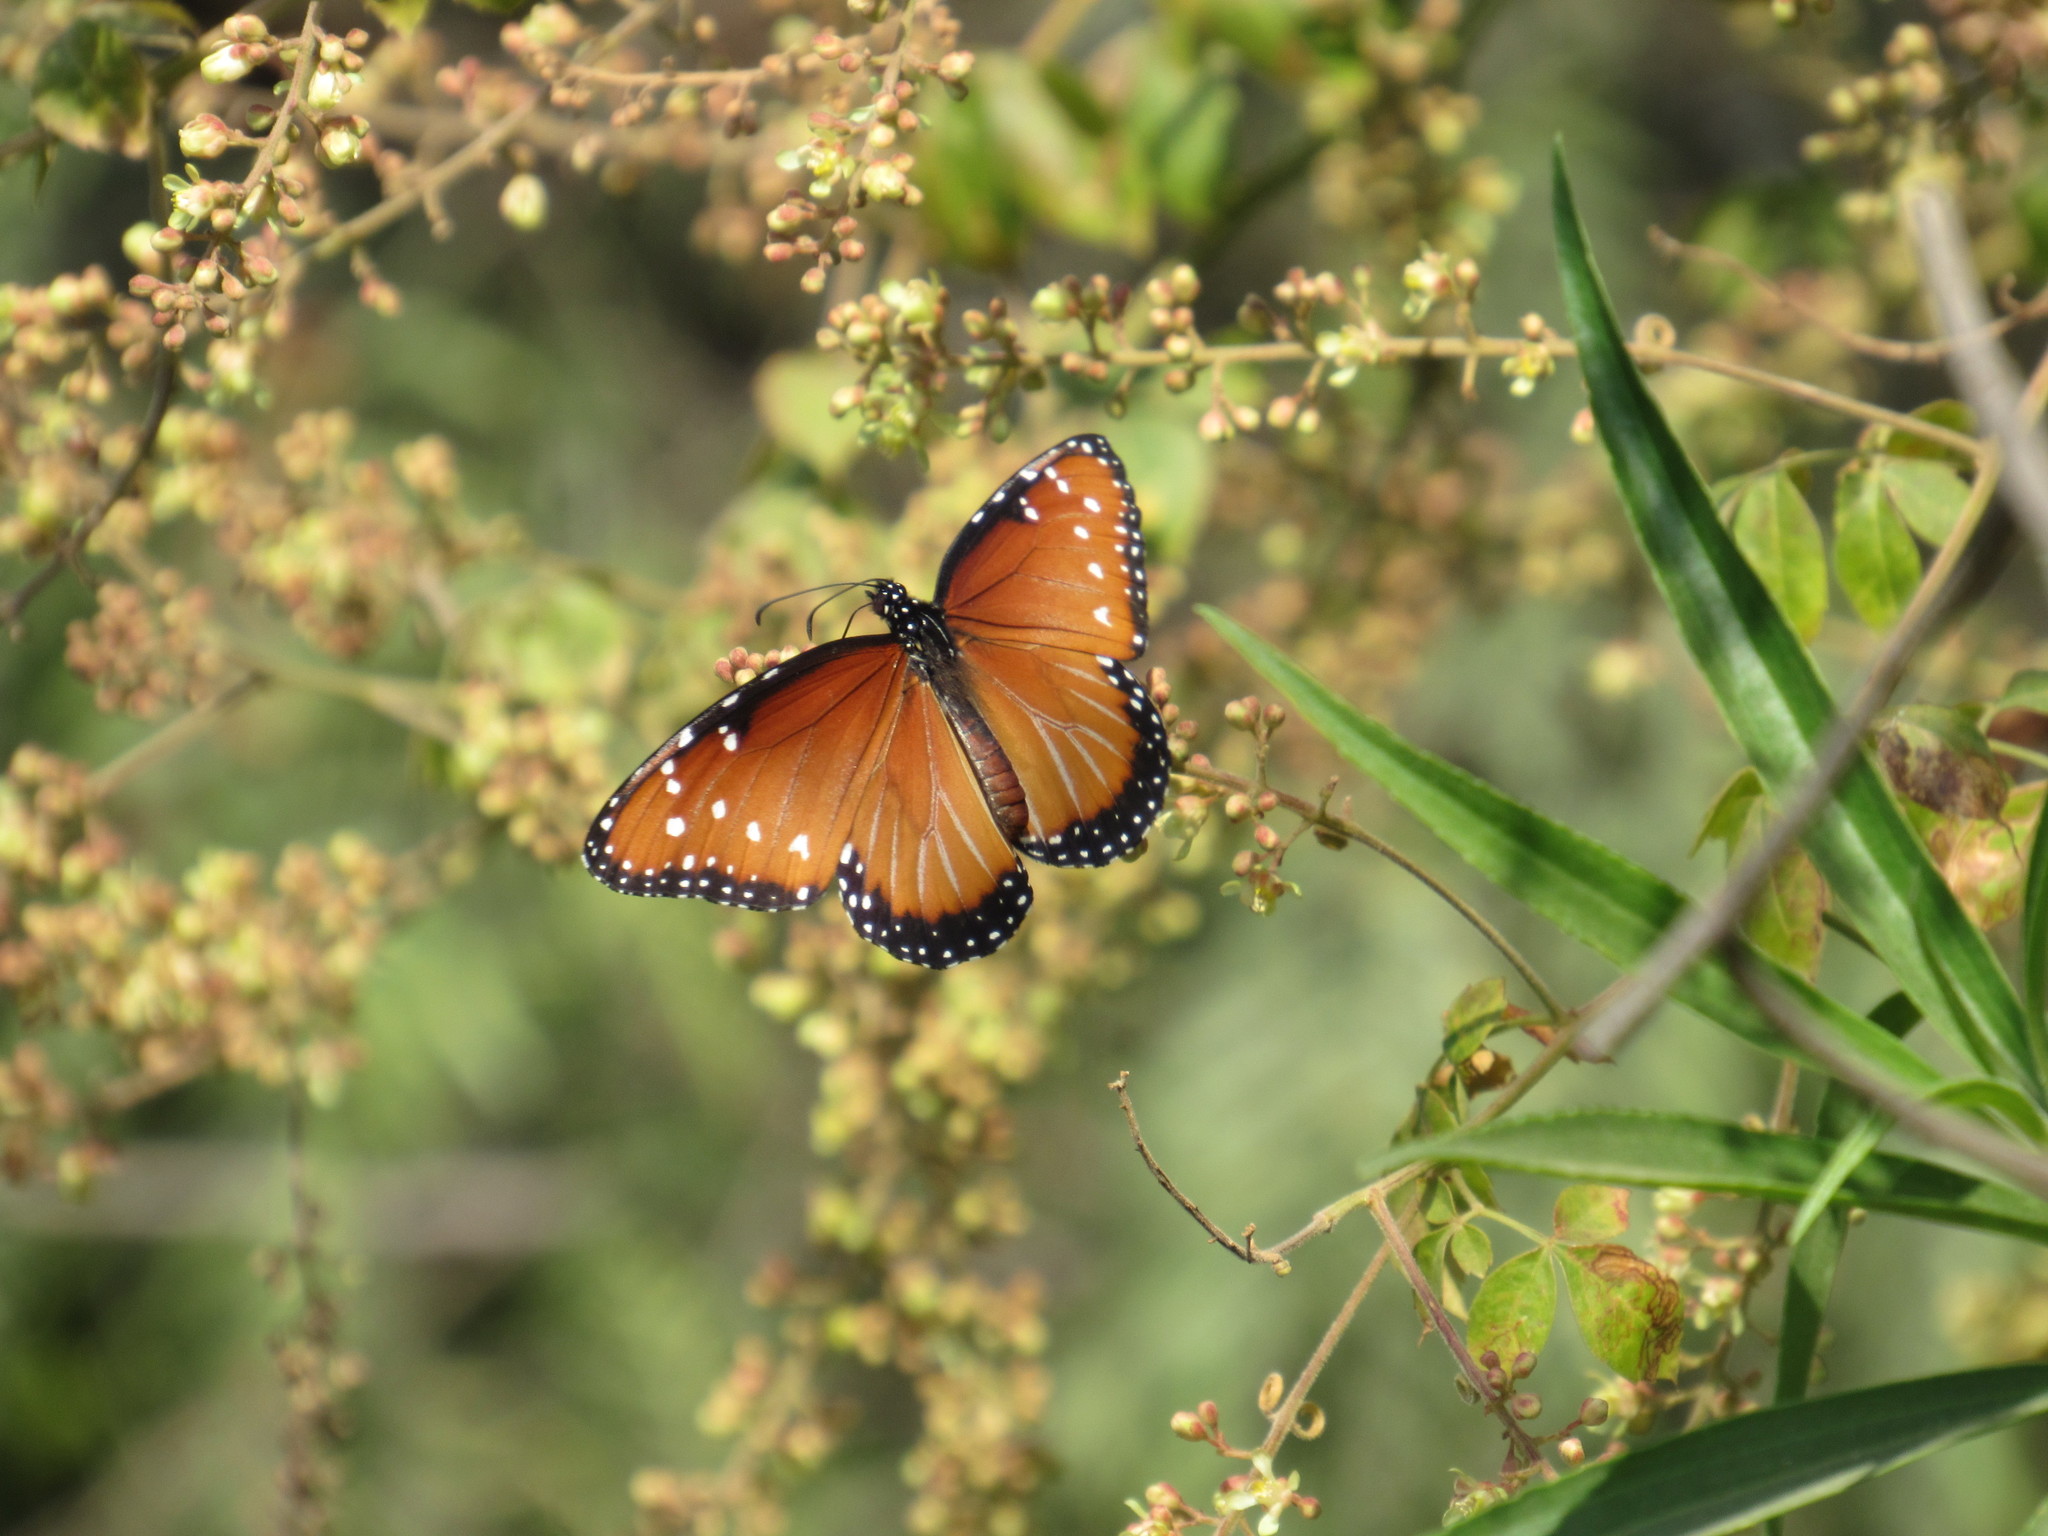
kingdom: Animalia
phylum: Arthropoda
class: Insecta
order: Lepidoptera
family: Nymphalidae
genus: Danaus
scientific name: Danaus gilippus
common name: Queen
